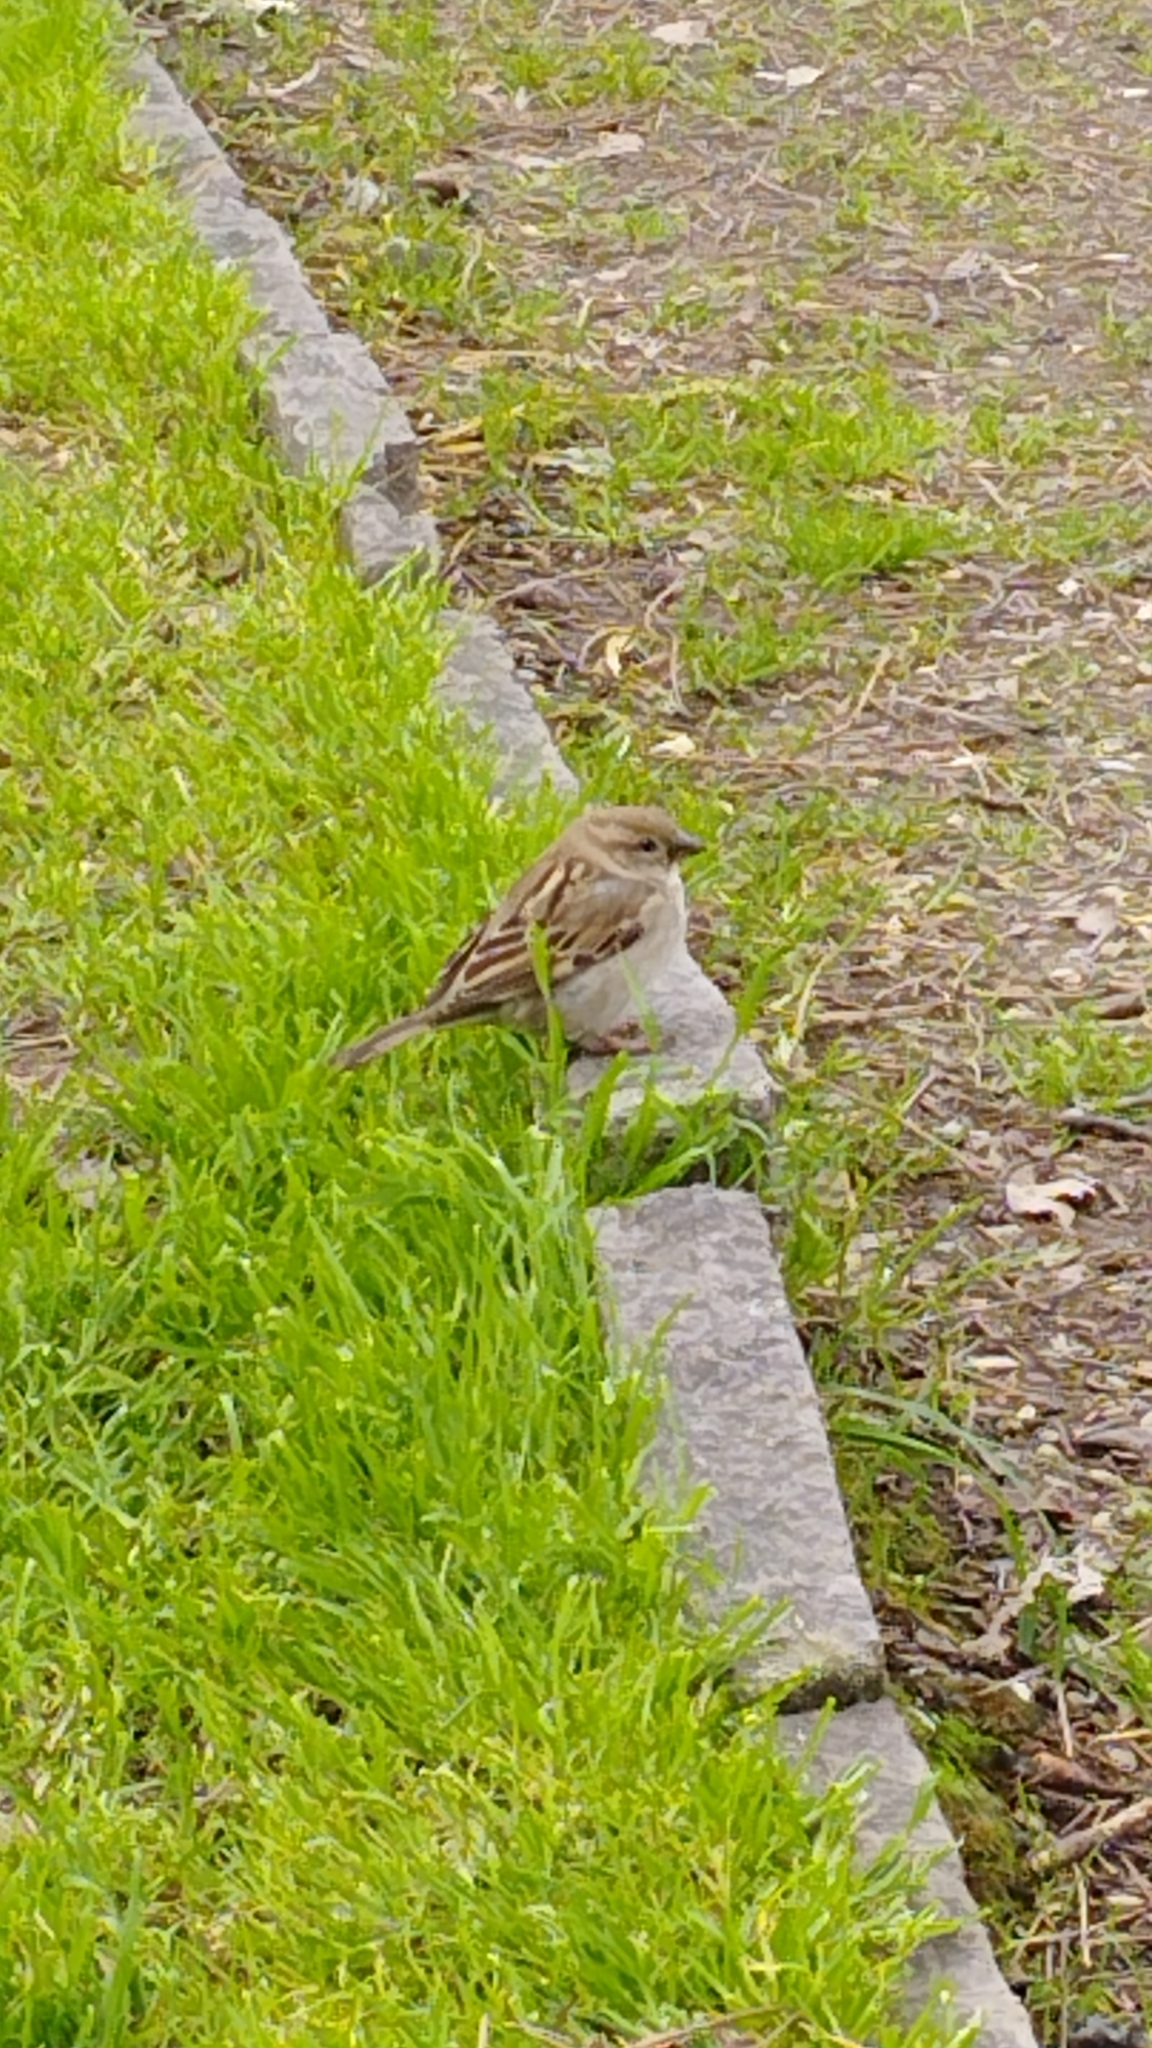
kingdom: Animalia
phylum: Chordata
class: Aves
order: Passeriformes
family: Passeridae
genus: Passer
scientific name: Passer italiae
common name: Italian sparrow
